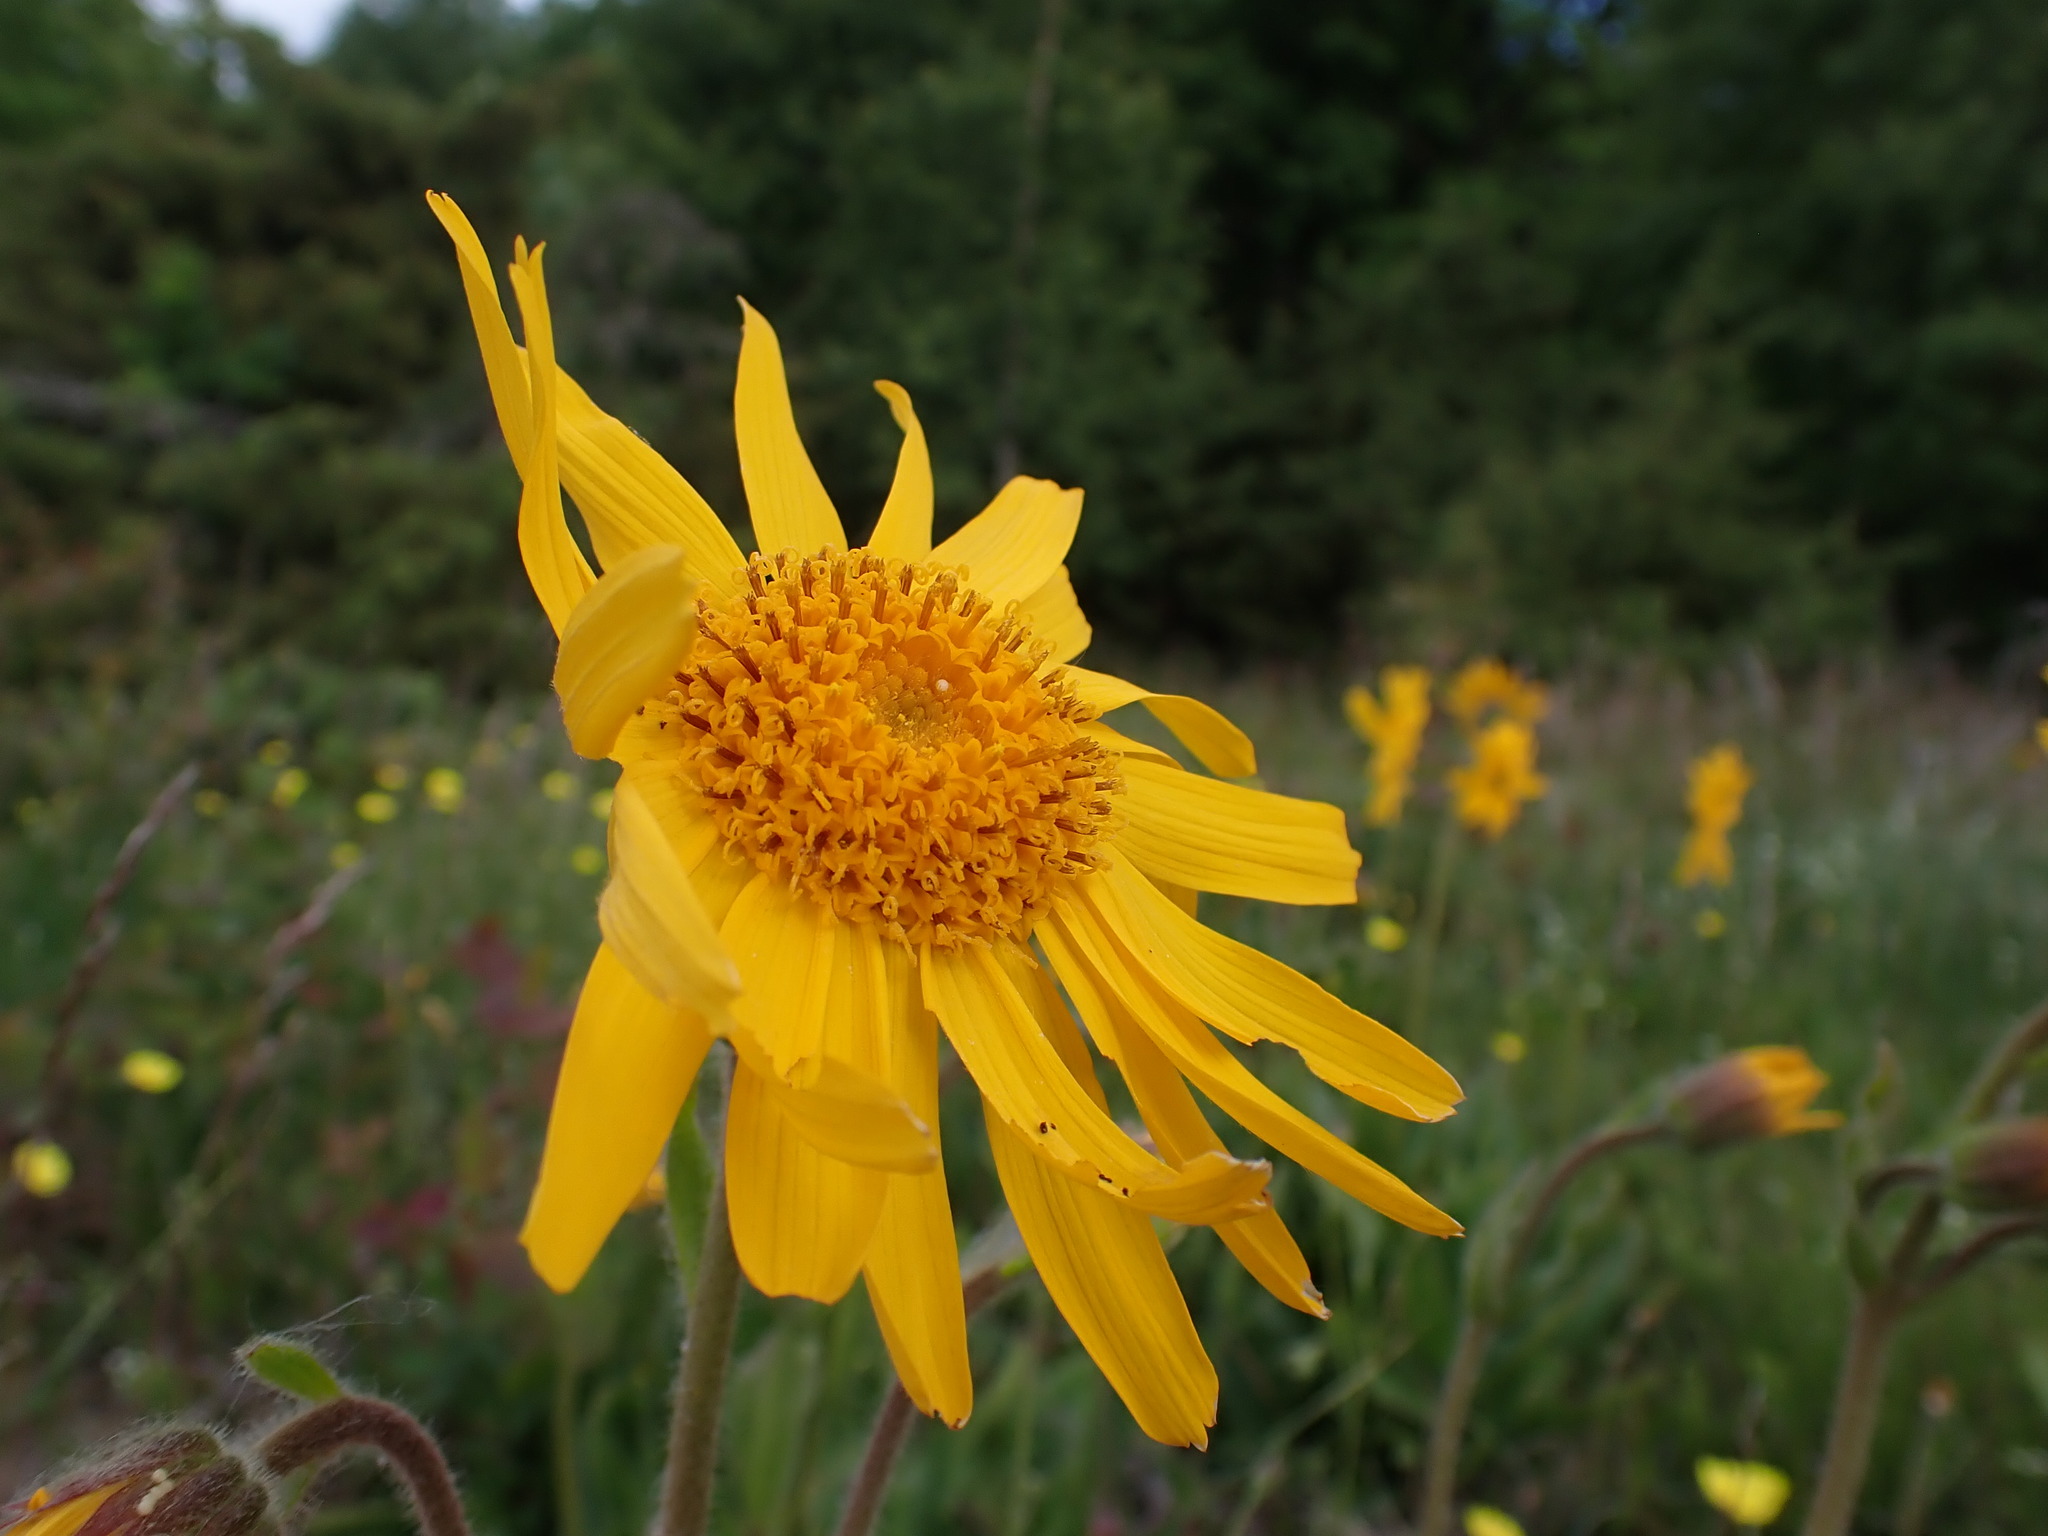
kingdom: Plantae
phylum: Tracheophyta
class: Magnoliopsida
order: Asterales
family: Asteraceae
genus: Arnica
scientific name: Arnica montana
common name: Leopard's bane
